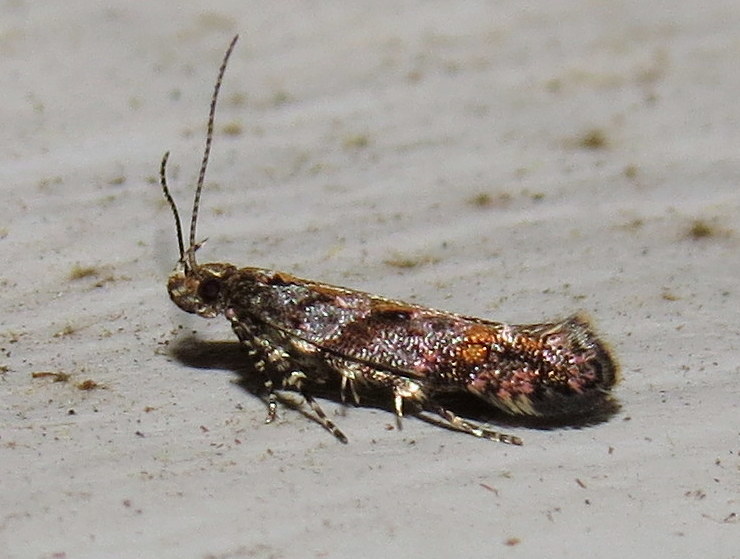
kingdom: Animalia
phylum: Arthropoda
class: Insecta
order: Lepidoptera
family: Gelechiidae
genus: Aristotelia
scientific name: Aristotelia rubidella
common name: Ruby aristotelia moth
